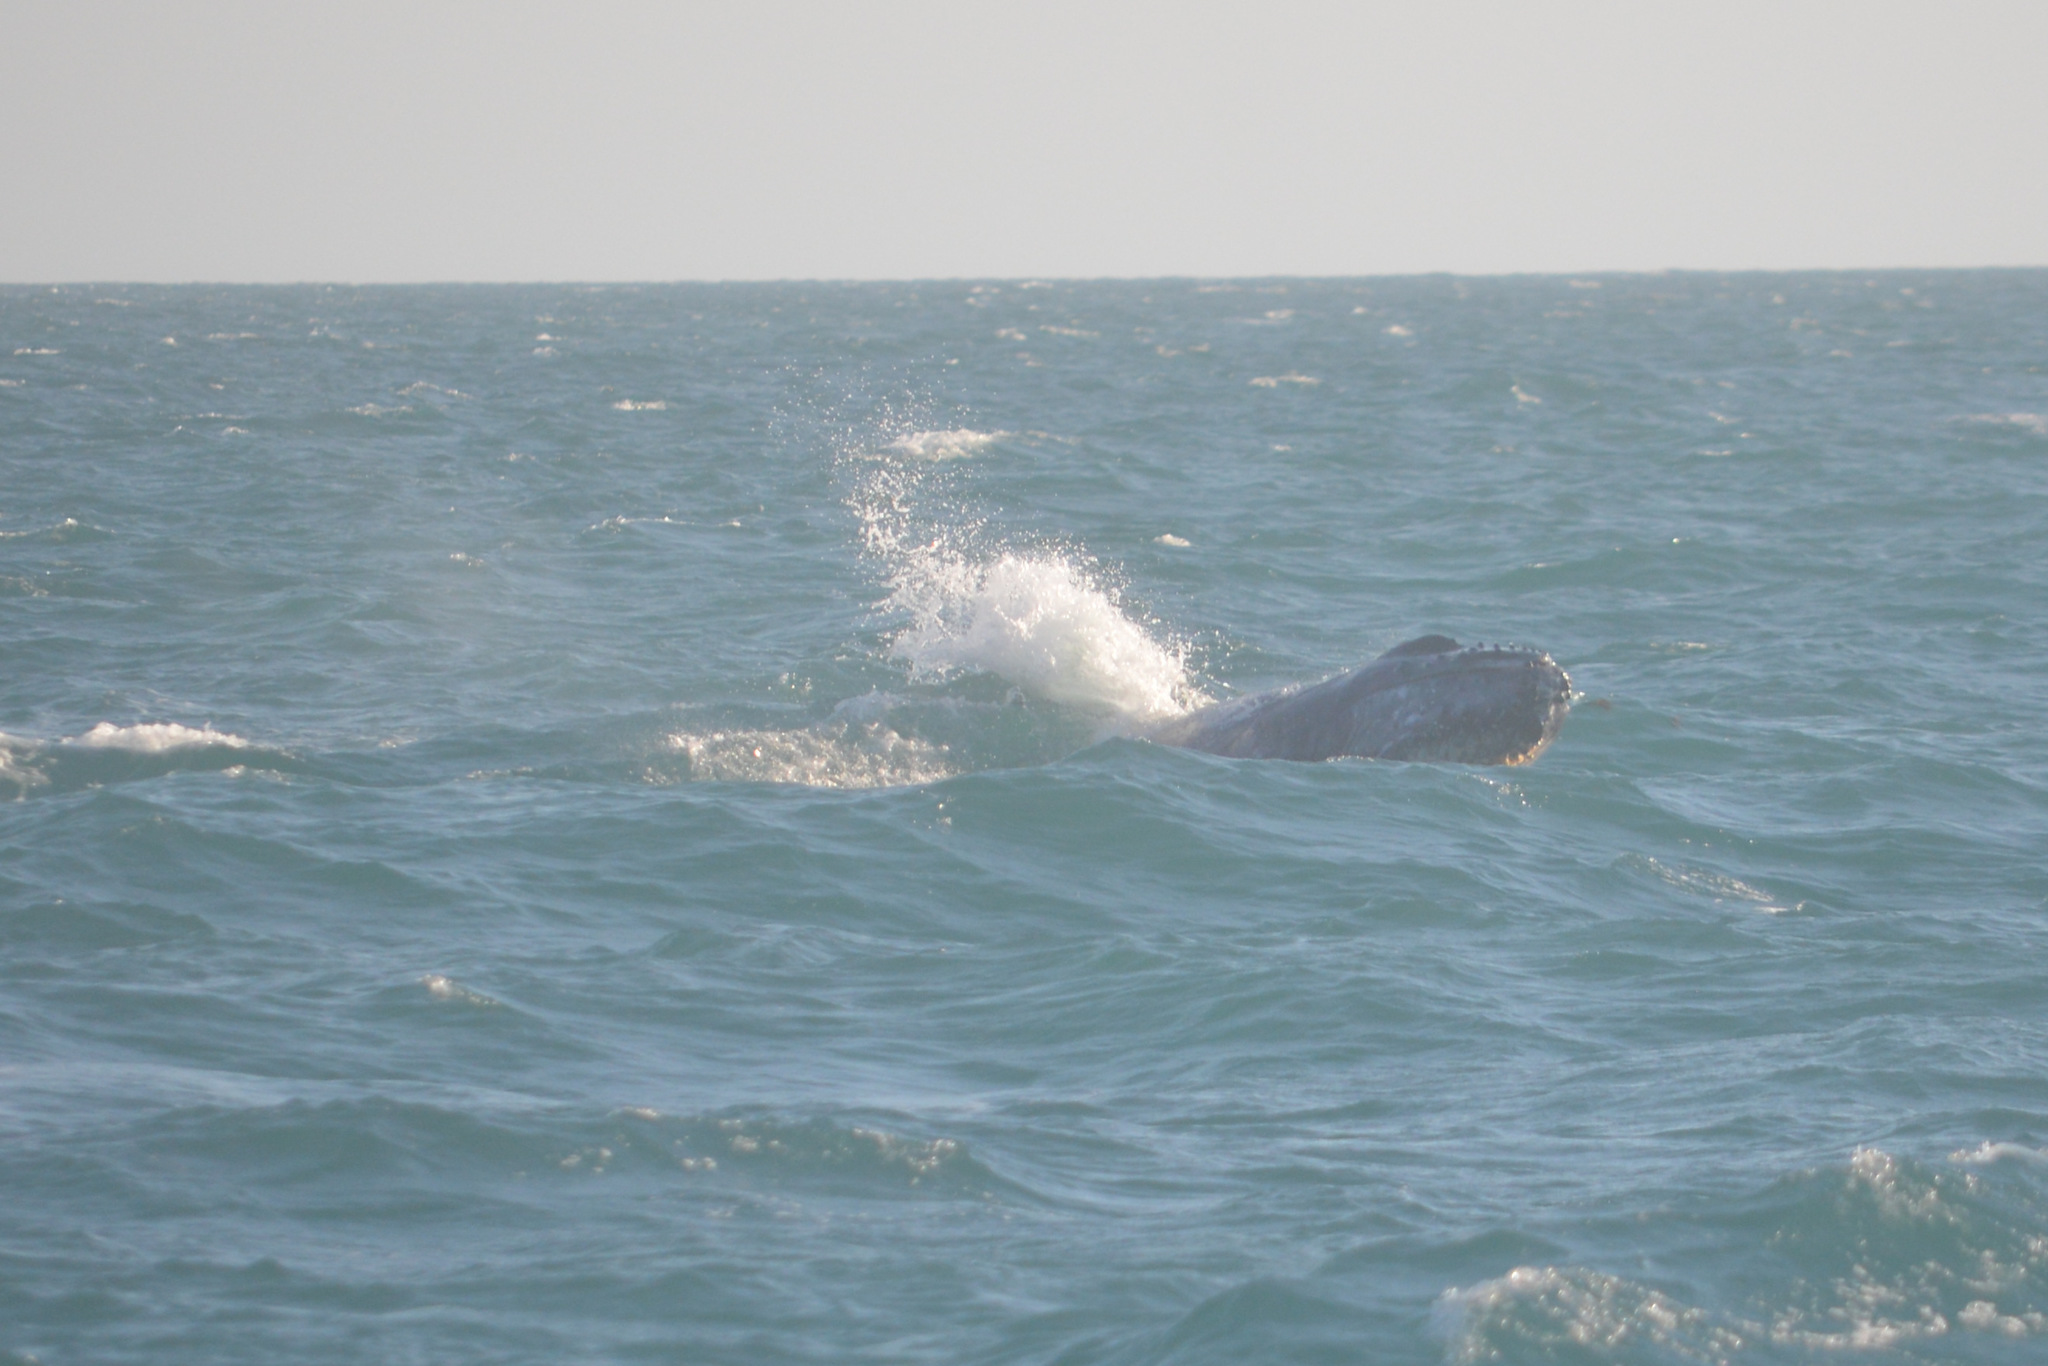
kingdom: Animalia
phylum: Chordata
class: Mammalia
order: Cetacea
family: Balaenopteridae
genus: Megaptera
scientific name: Megaptera novaeangliae
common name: Humpback whale
